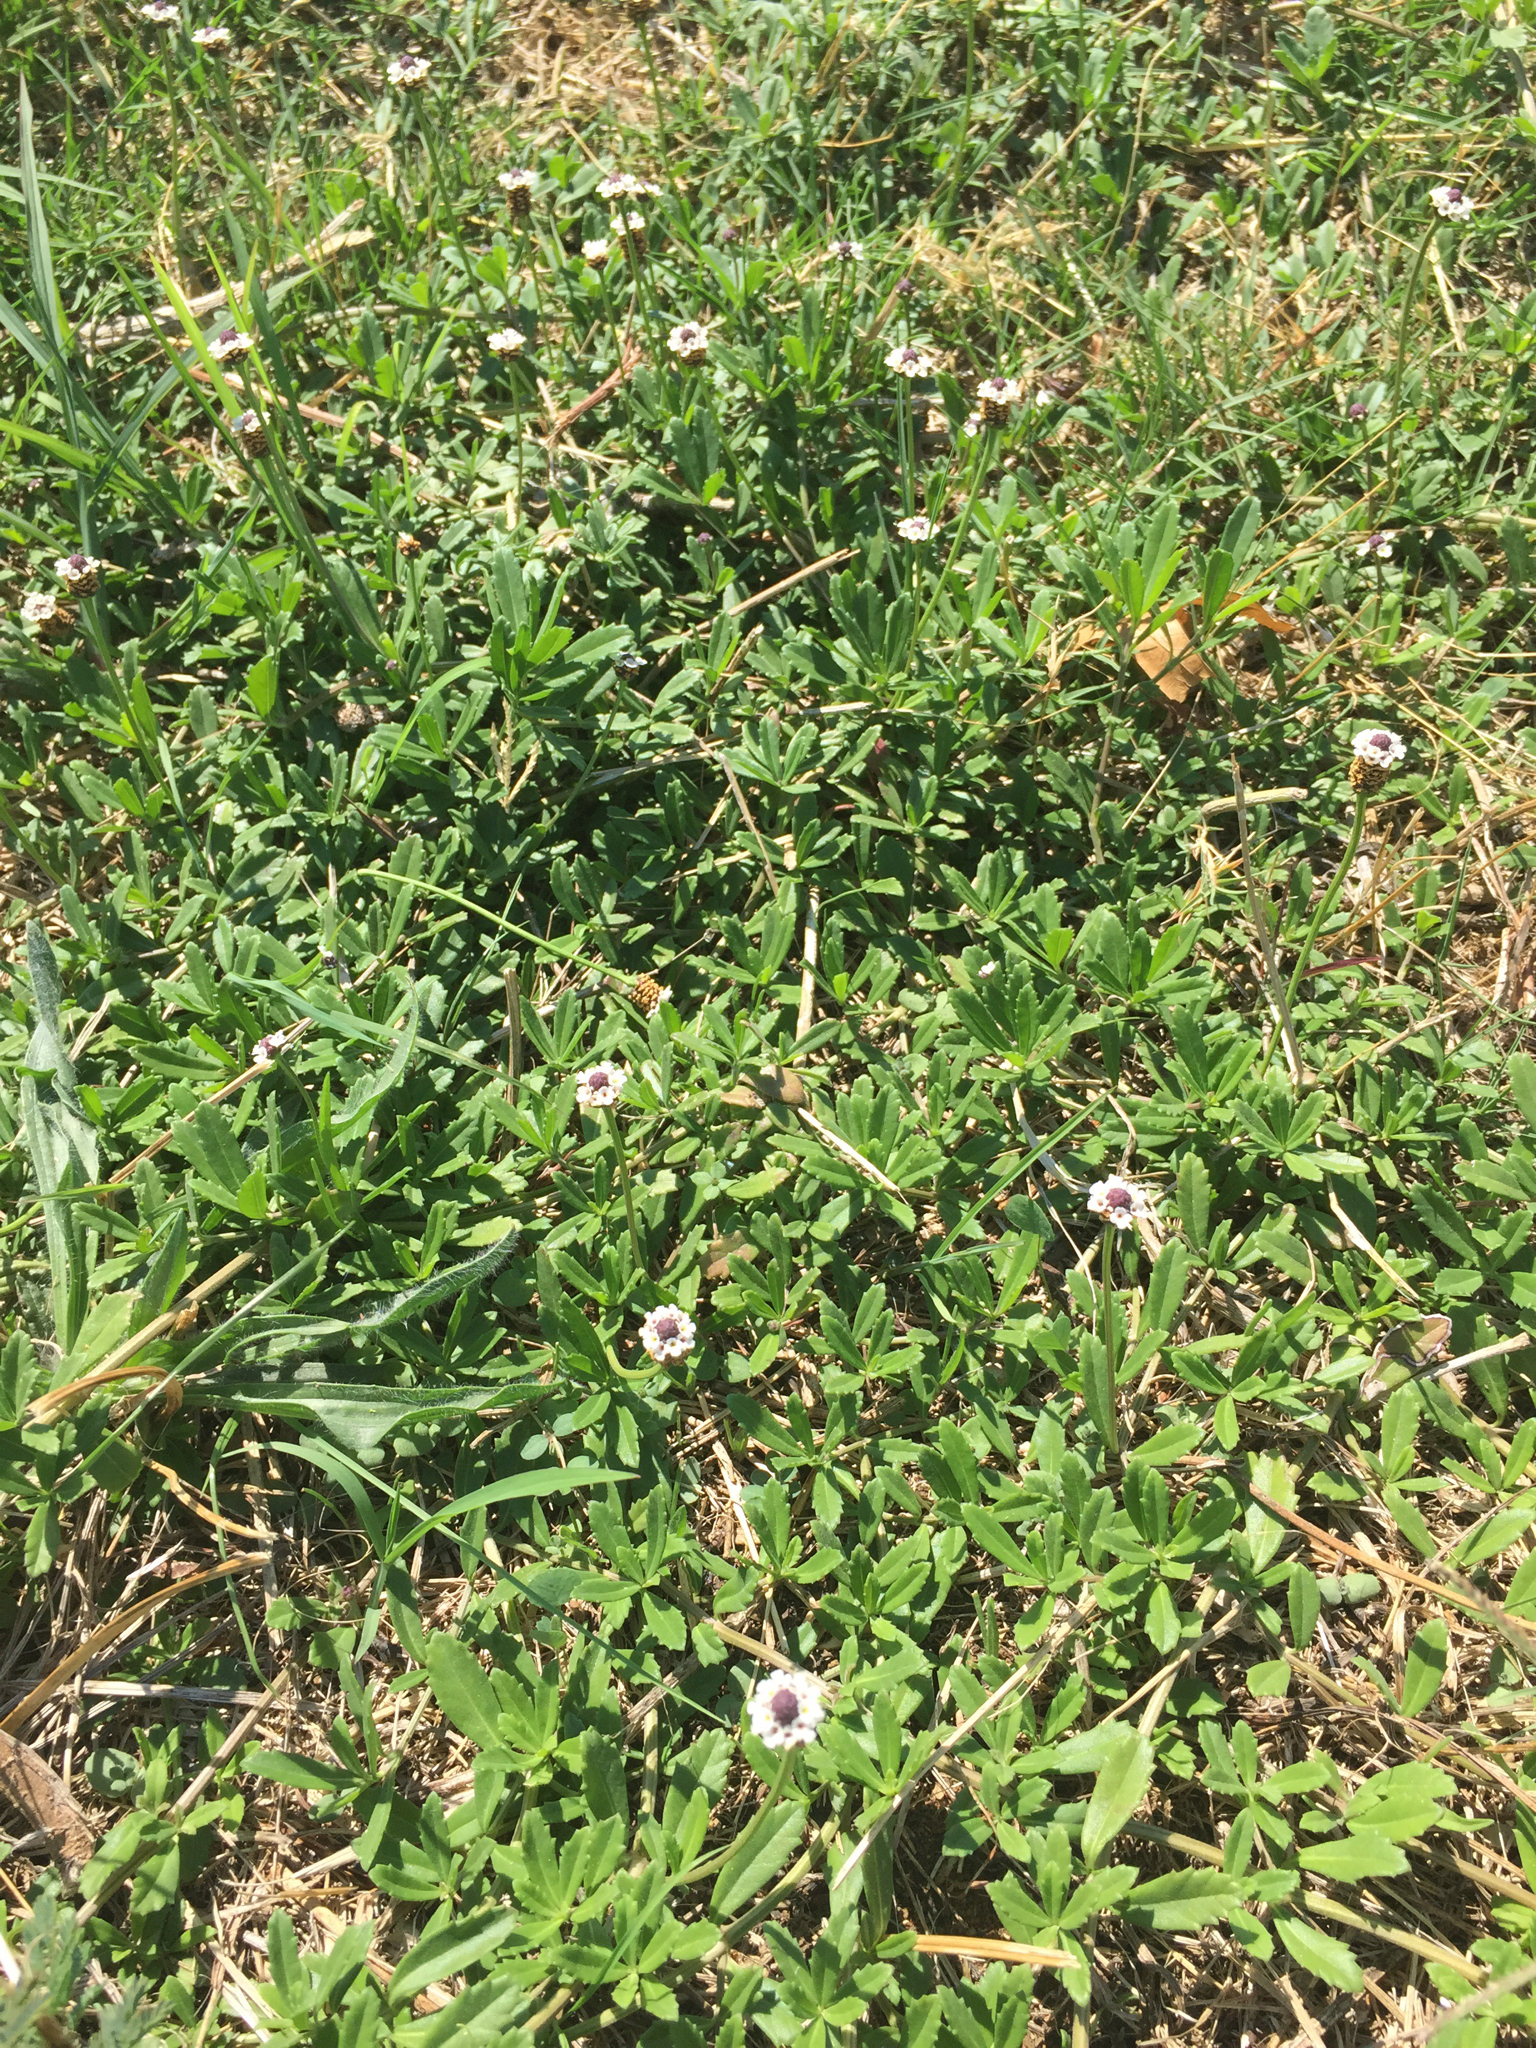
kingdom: Plantae
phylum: Tracheophyta
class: Magnoliopsida
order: Lamiales
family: Verbenaceae
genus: Phyla
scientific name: Phyla nodiflora
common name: Frogfruit
